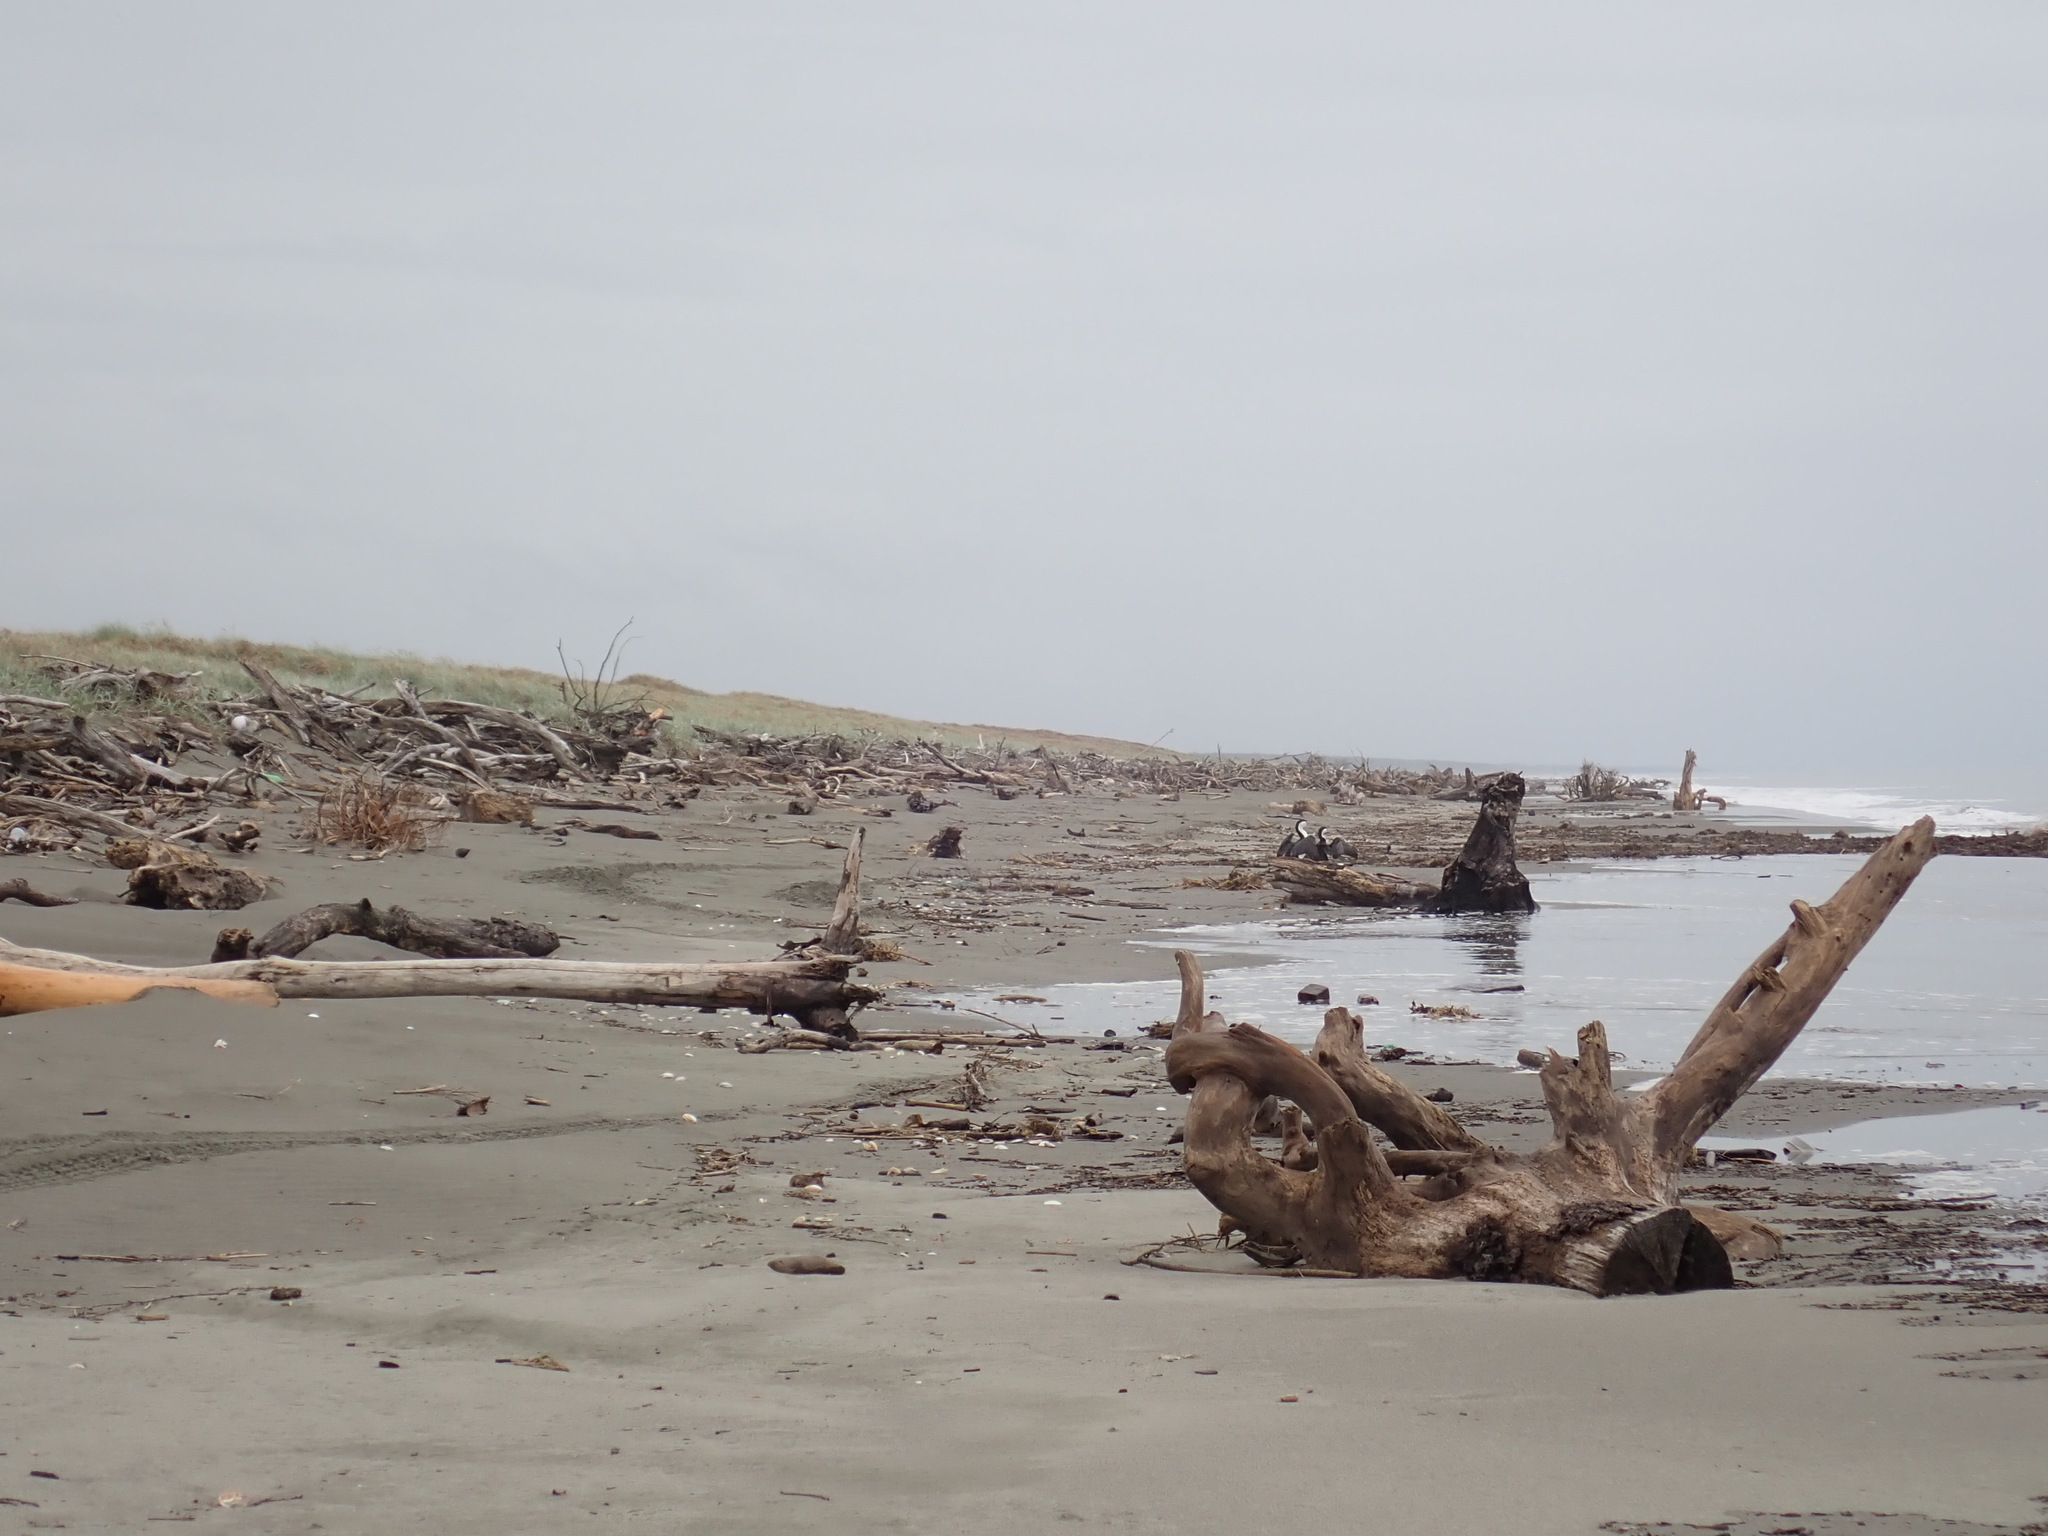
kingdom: Animalia
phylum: Chordata
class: Aves
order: Suliformes
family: Phalacrocoracidae
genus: Phalacrocorax
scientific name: Phalacrocorax varius
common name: Pied cormorant
